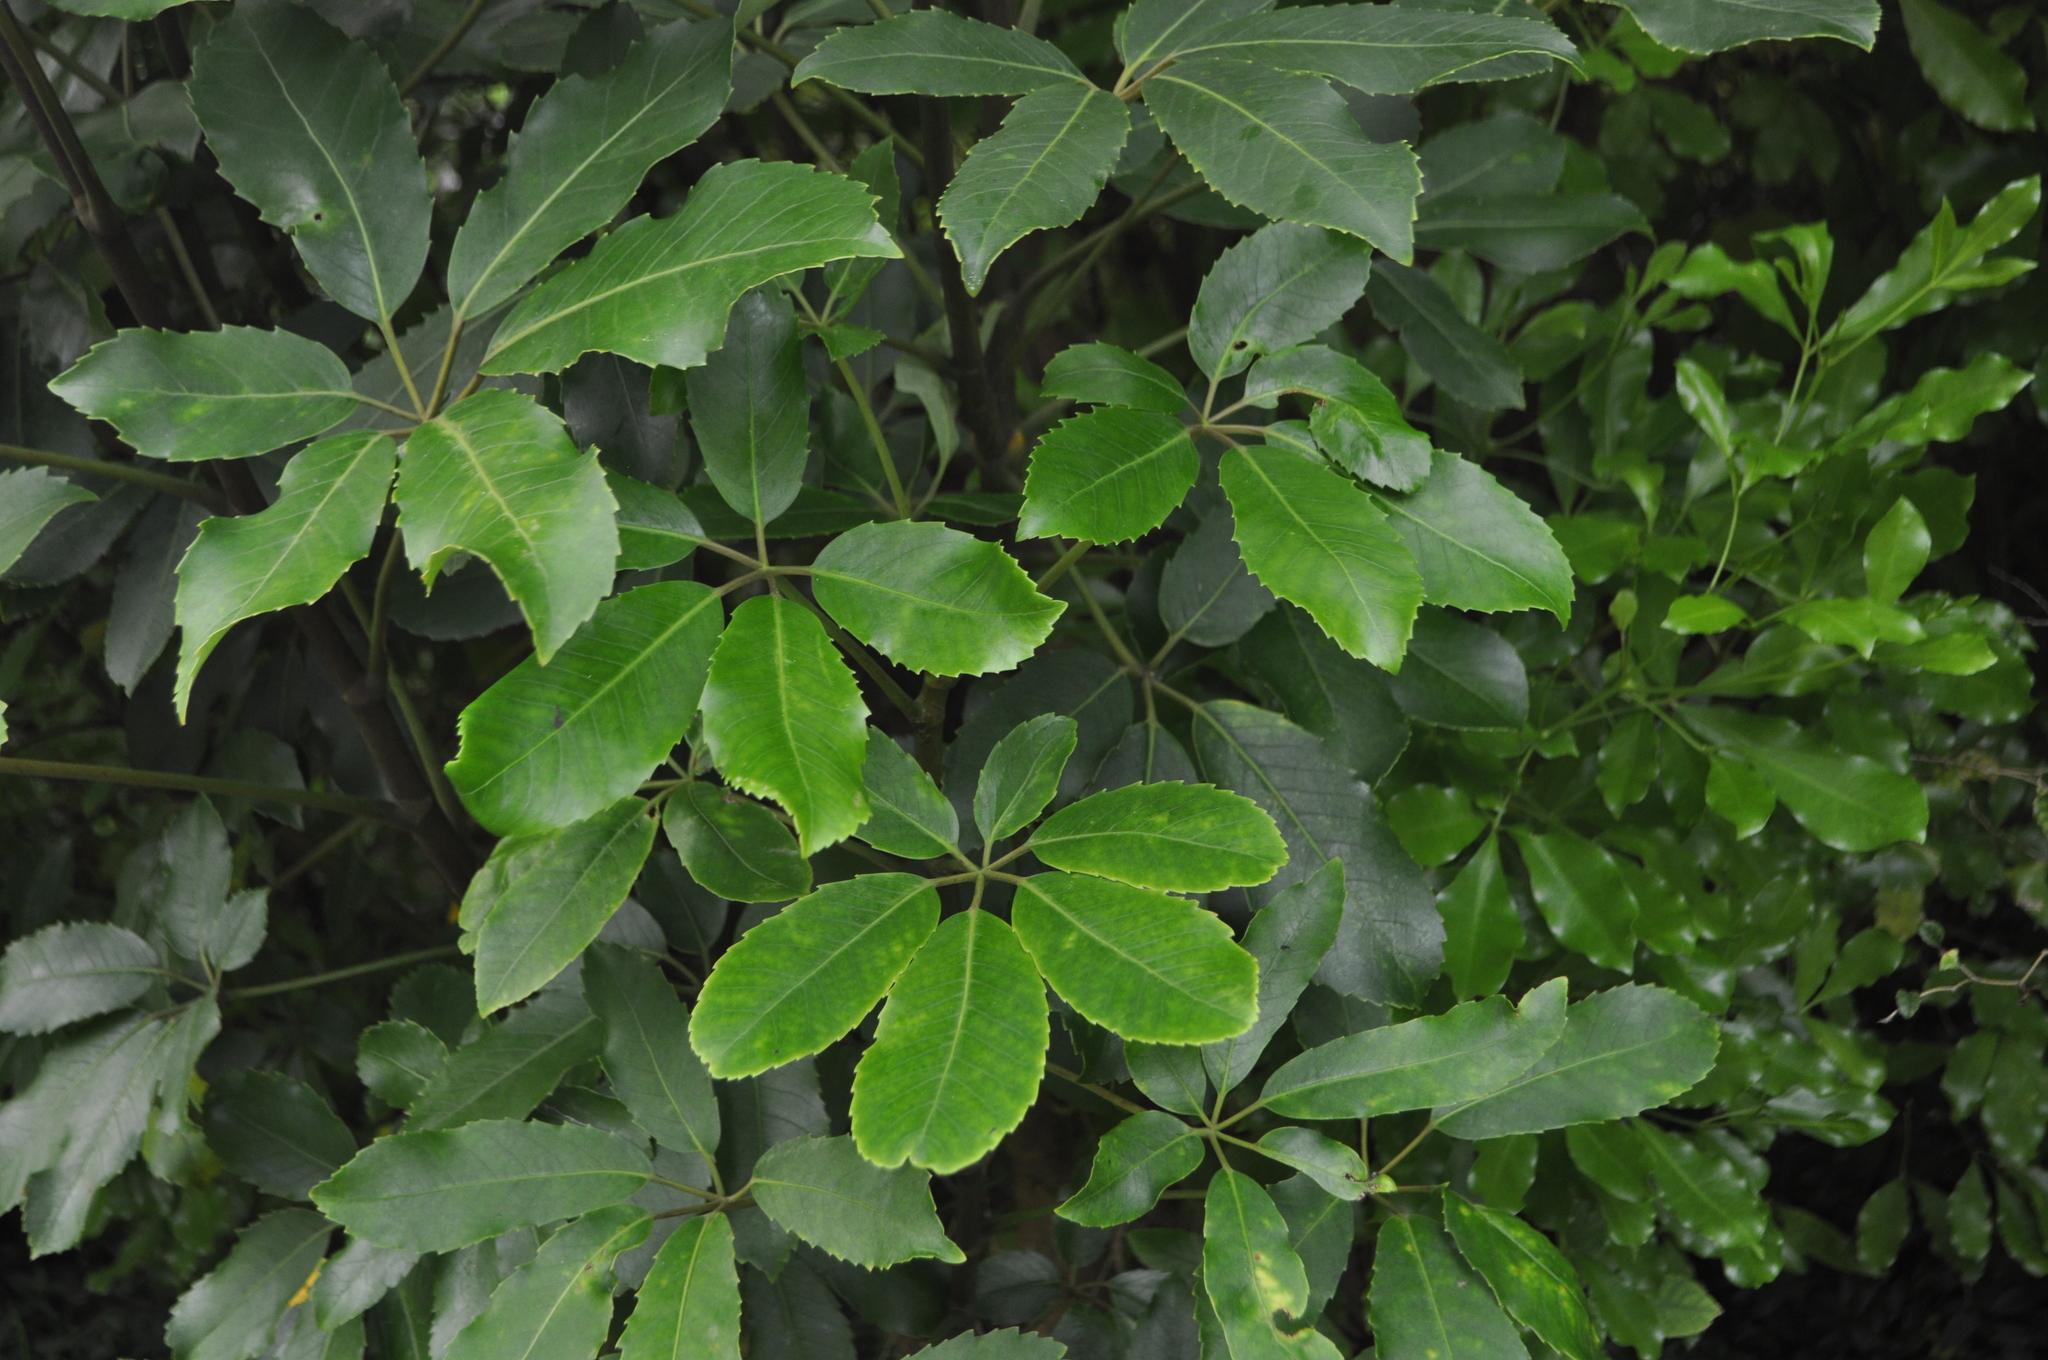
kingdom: Plantae
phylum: Tracheophyta
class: Magnoliopsida
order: Apiales
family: Araliaceae
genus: Neopanax
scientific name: Neopanax arboreus
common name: Five-fingers
